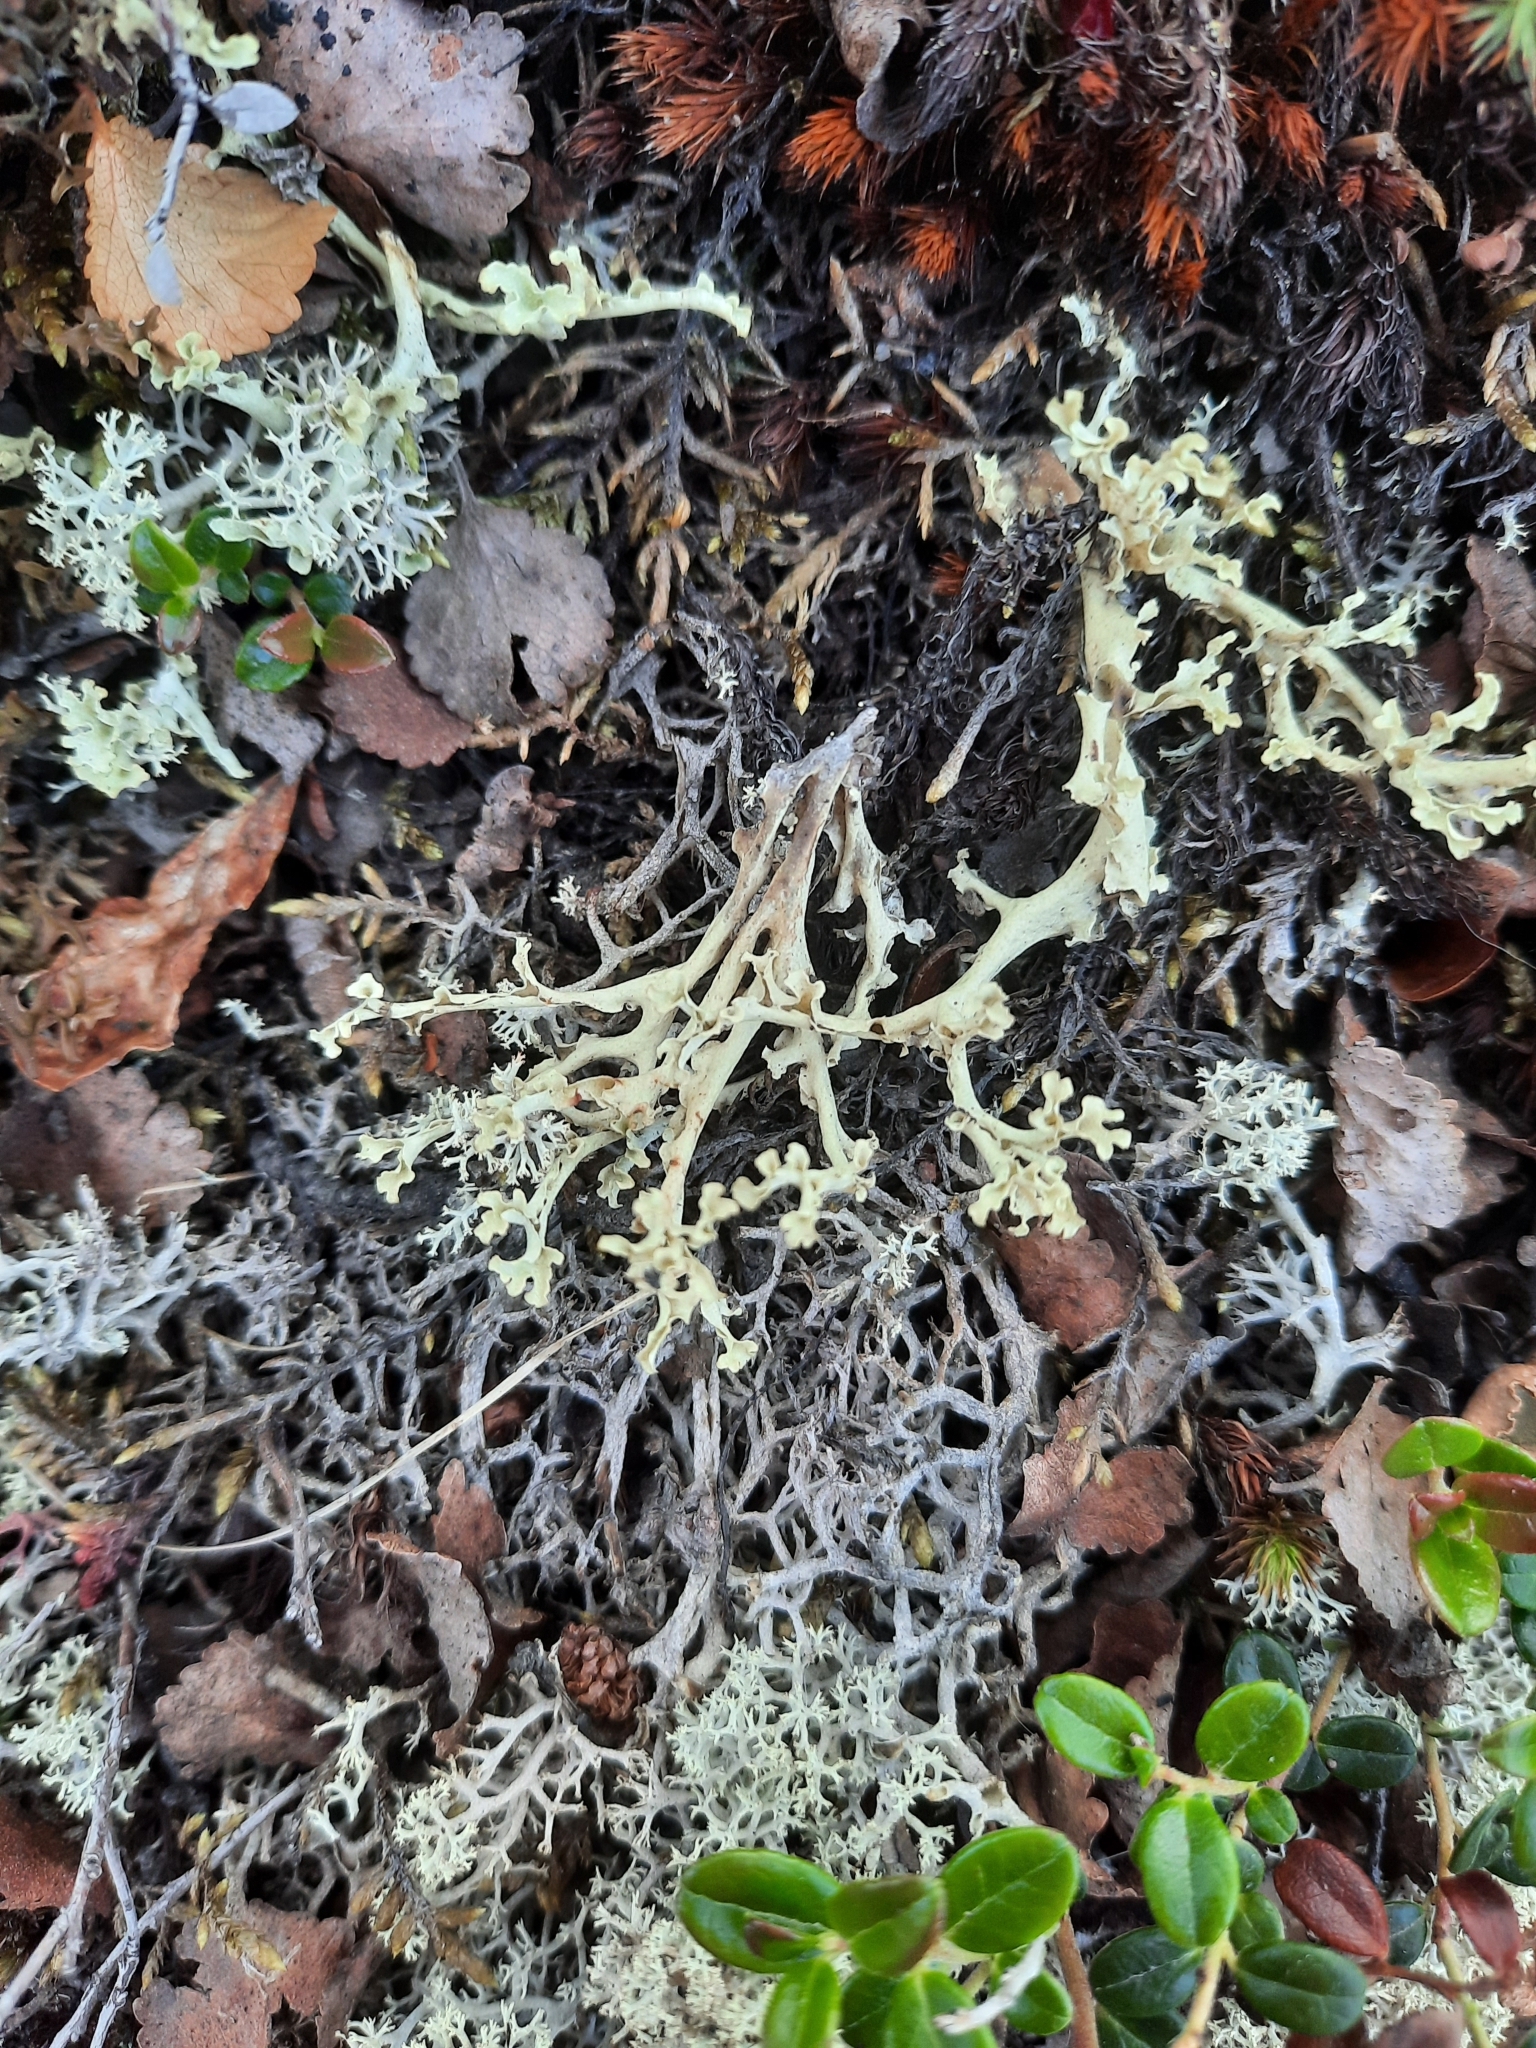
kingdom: Fungi
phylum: Ascomycota
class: Lecanoromycetes
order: Lecanorales
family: Parmeliaceae
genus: Nephromopsis
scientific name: Nephromopsis cucullata
